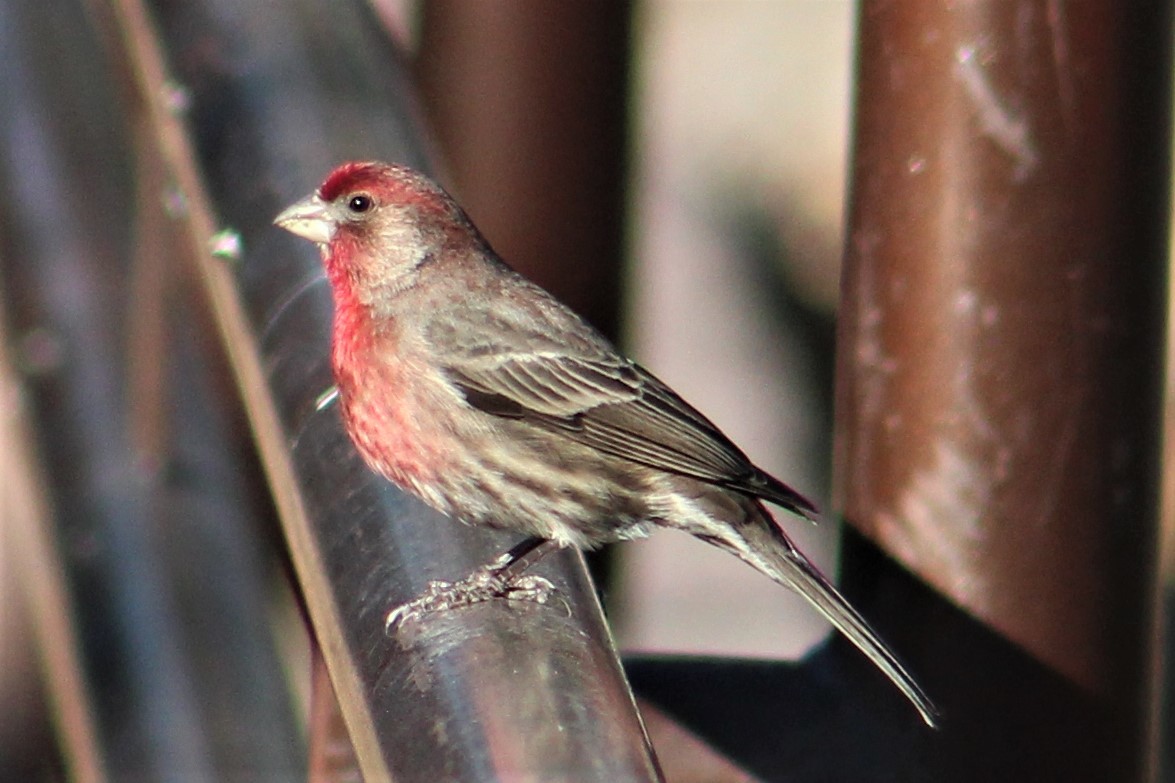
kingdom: Animalia
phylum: Chordata
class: Aves
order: Passeriformes
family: Fringillidae
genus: Haemorhous
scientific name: Haemorhous mexicanus
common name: House finch
